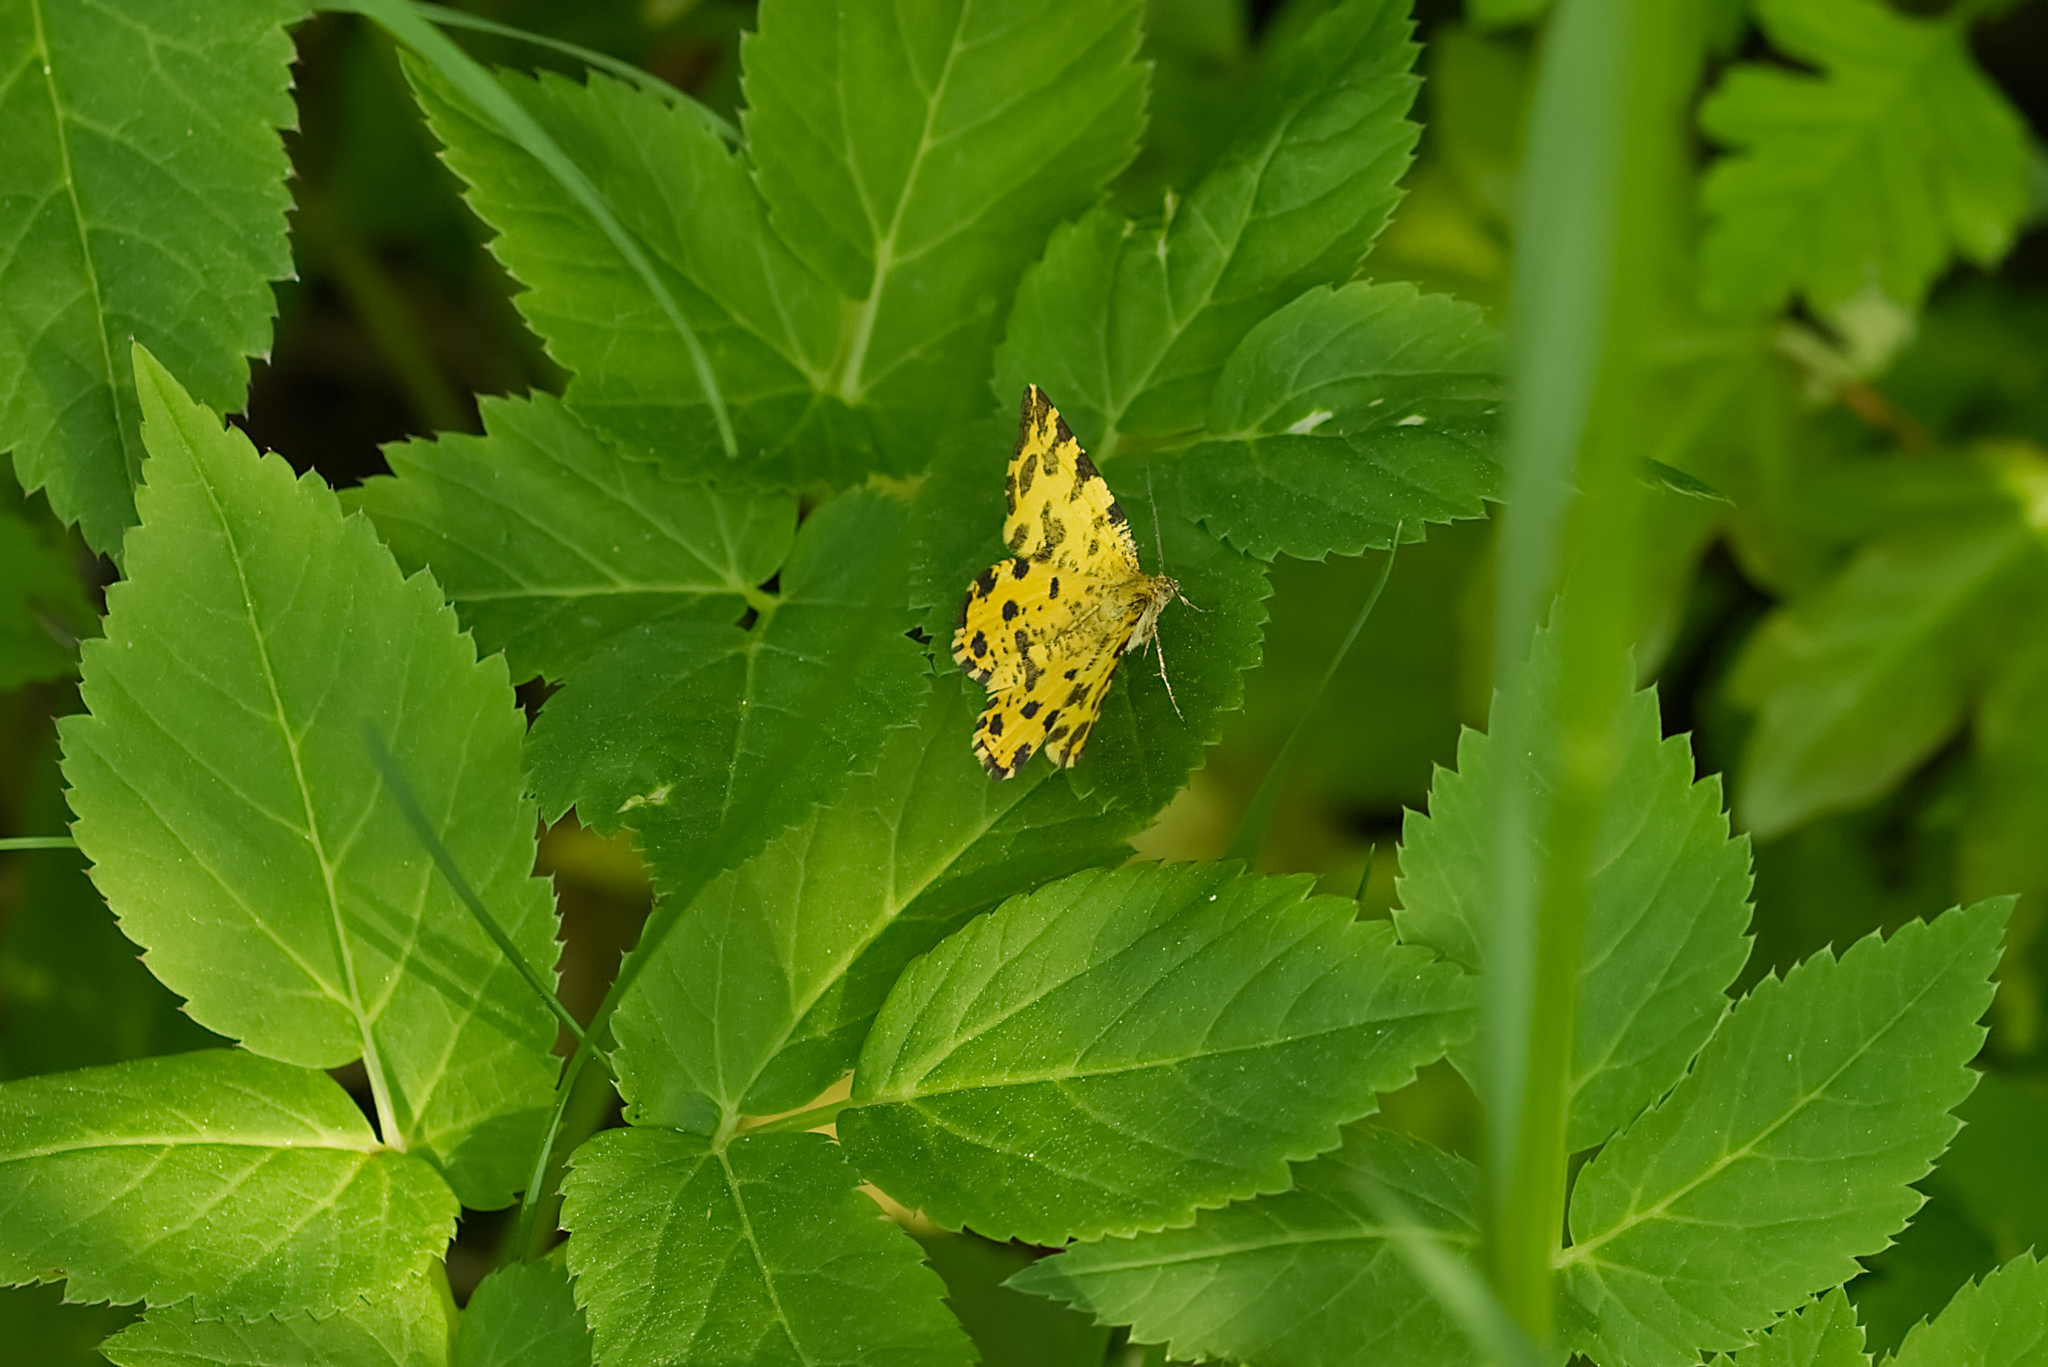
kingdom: Animalia
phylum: Arthropoda
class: Insecta
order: Lepidoptera
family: Geometridae
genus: Pseudopanthera
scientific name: Pseudopanthera macularia
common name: Speckled yellow
